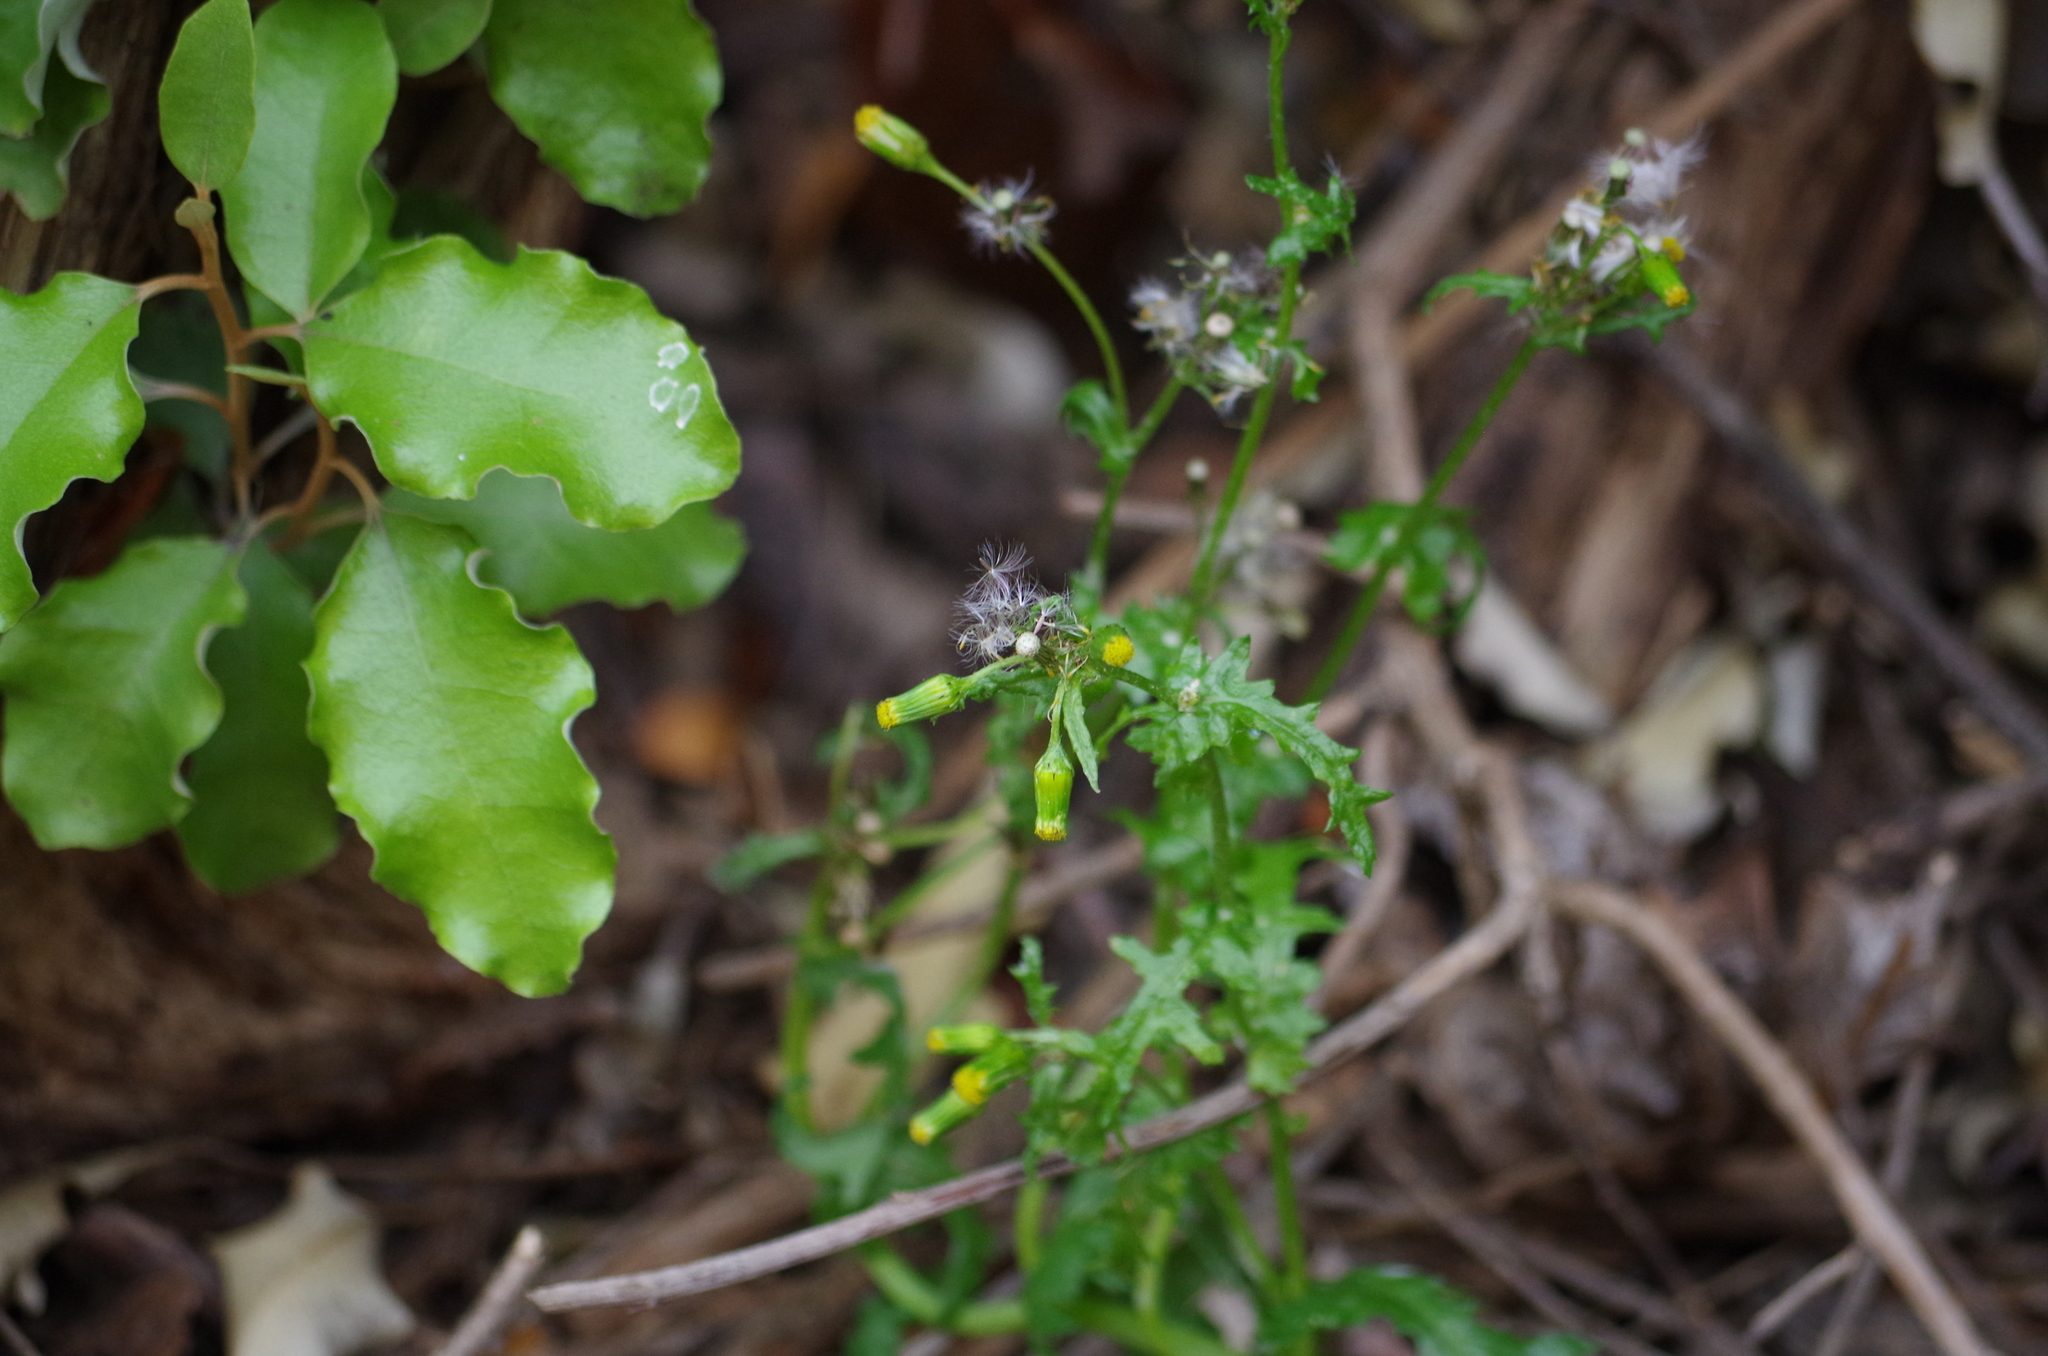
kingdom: Plantae
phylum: Tracheophyta
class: Magnoliopsida
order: Asterales
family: Asteraceae
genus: Senecio
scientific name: Senecio vulgaris
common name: Old-man-in-the-spring
